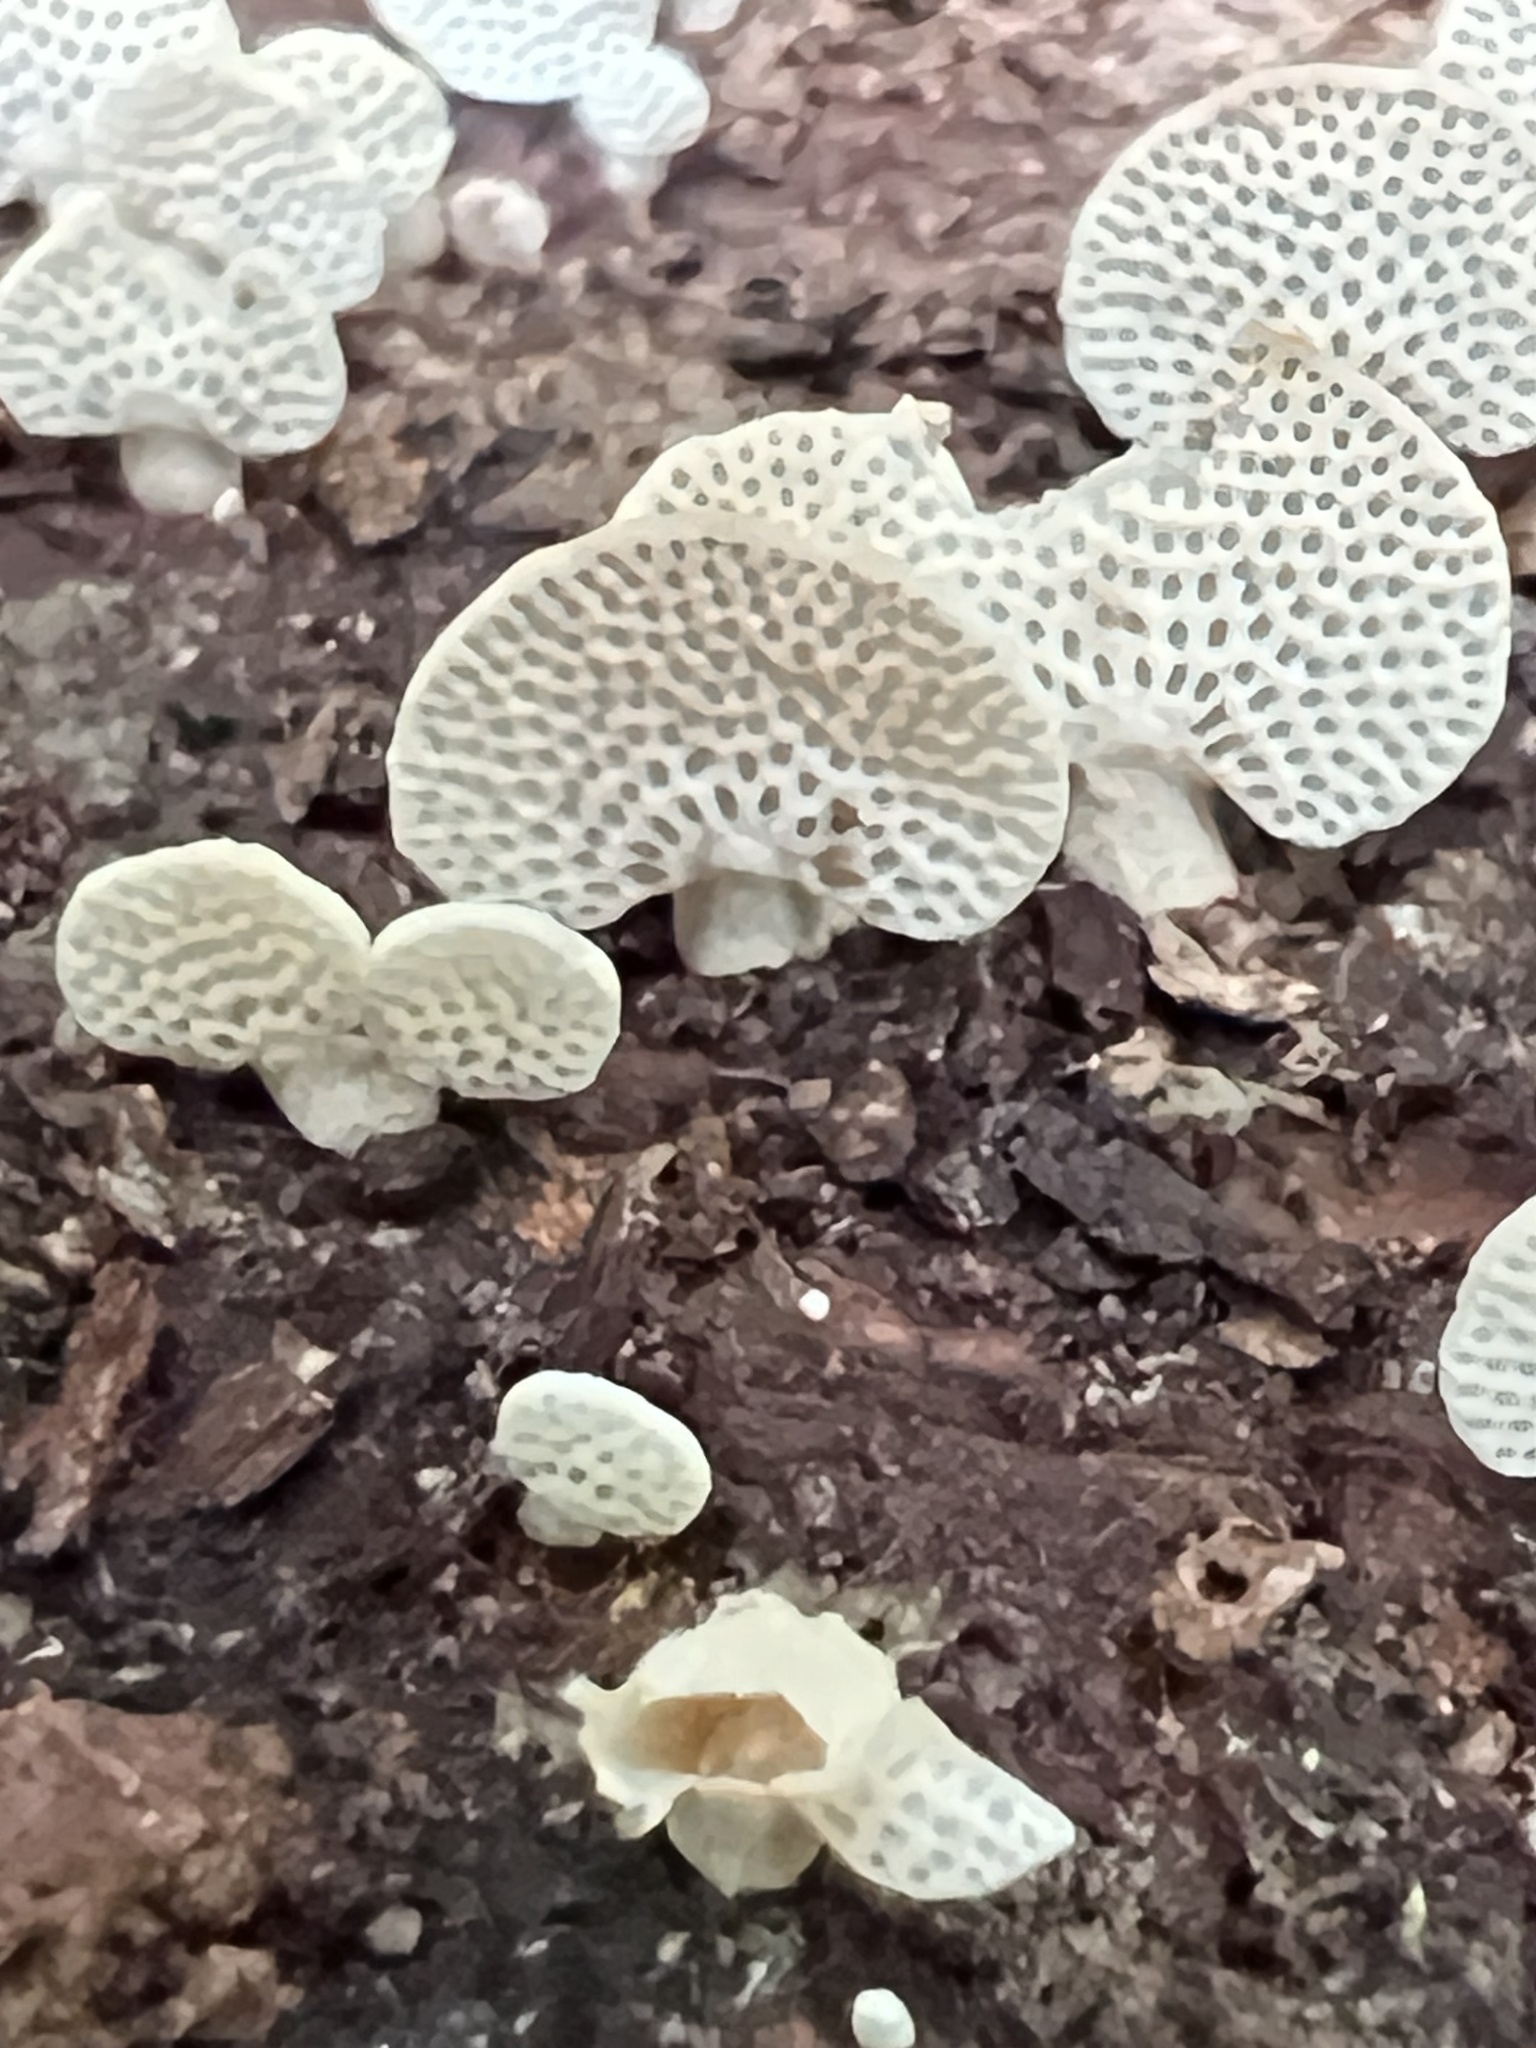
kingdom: Fungi
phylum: Basidiomycota
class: Agaricomycetes
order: Agaricales
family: Mycenaceae
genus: Panellus
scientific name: Panellus luxfilamentus
